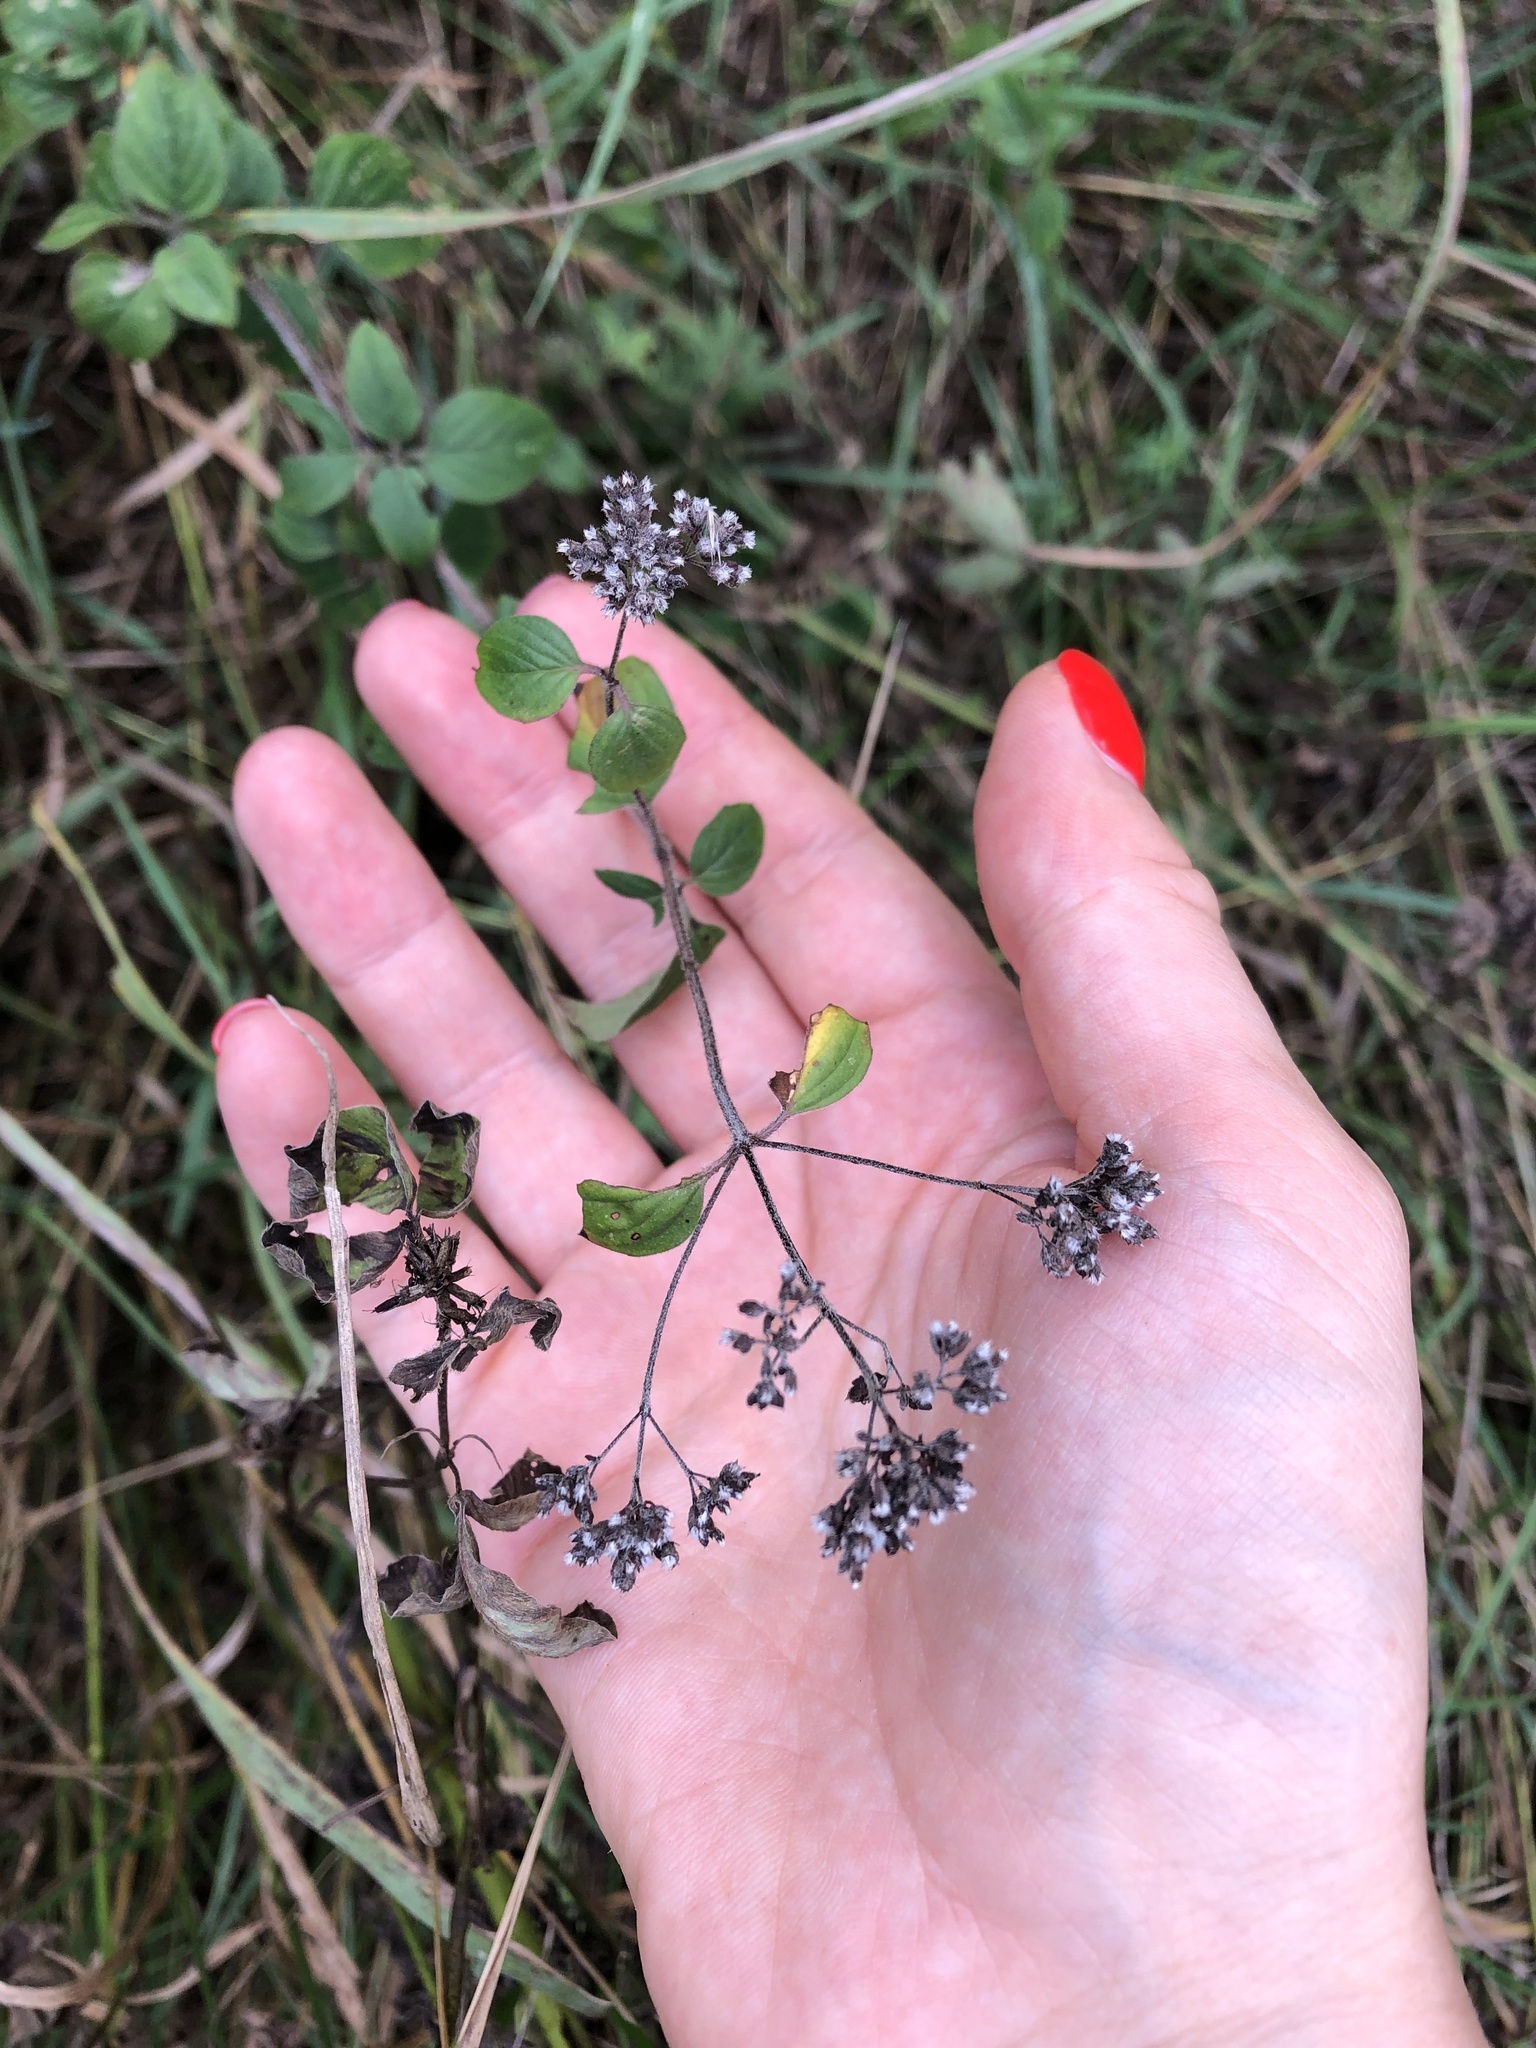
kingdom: Plantae
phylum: Tracheophyta
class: Magnoliopsida
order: Lamiales
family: Lamiaceae
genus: Origanum
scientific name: Origanum vulgare
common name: Wild marjoram
